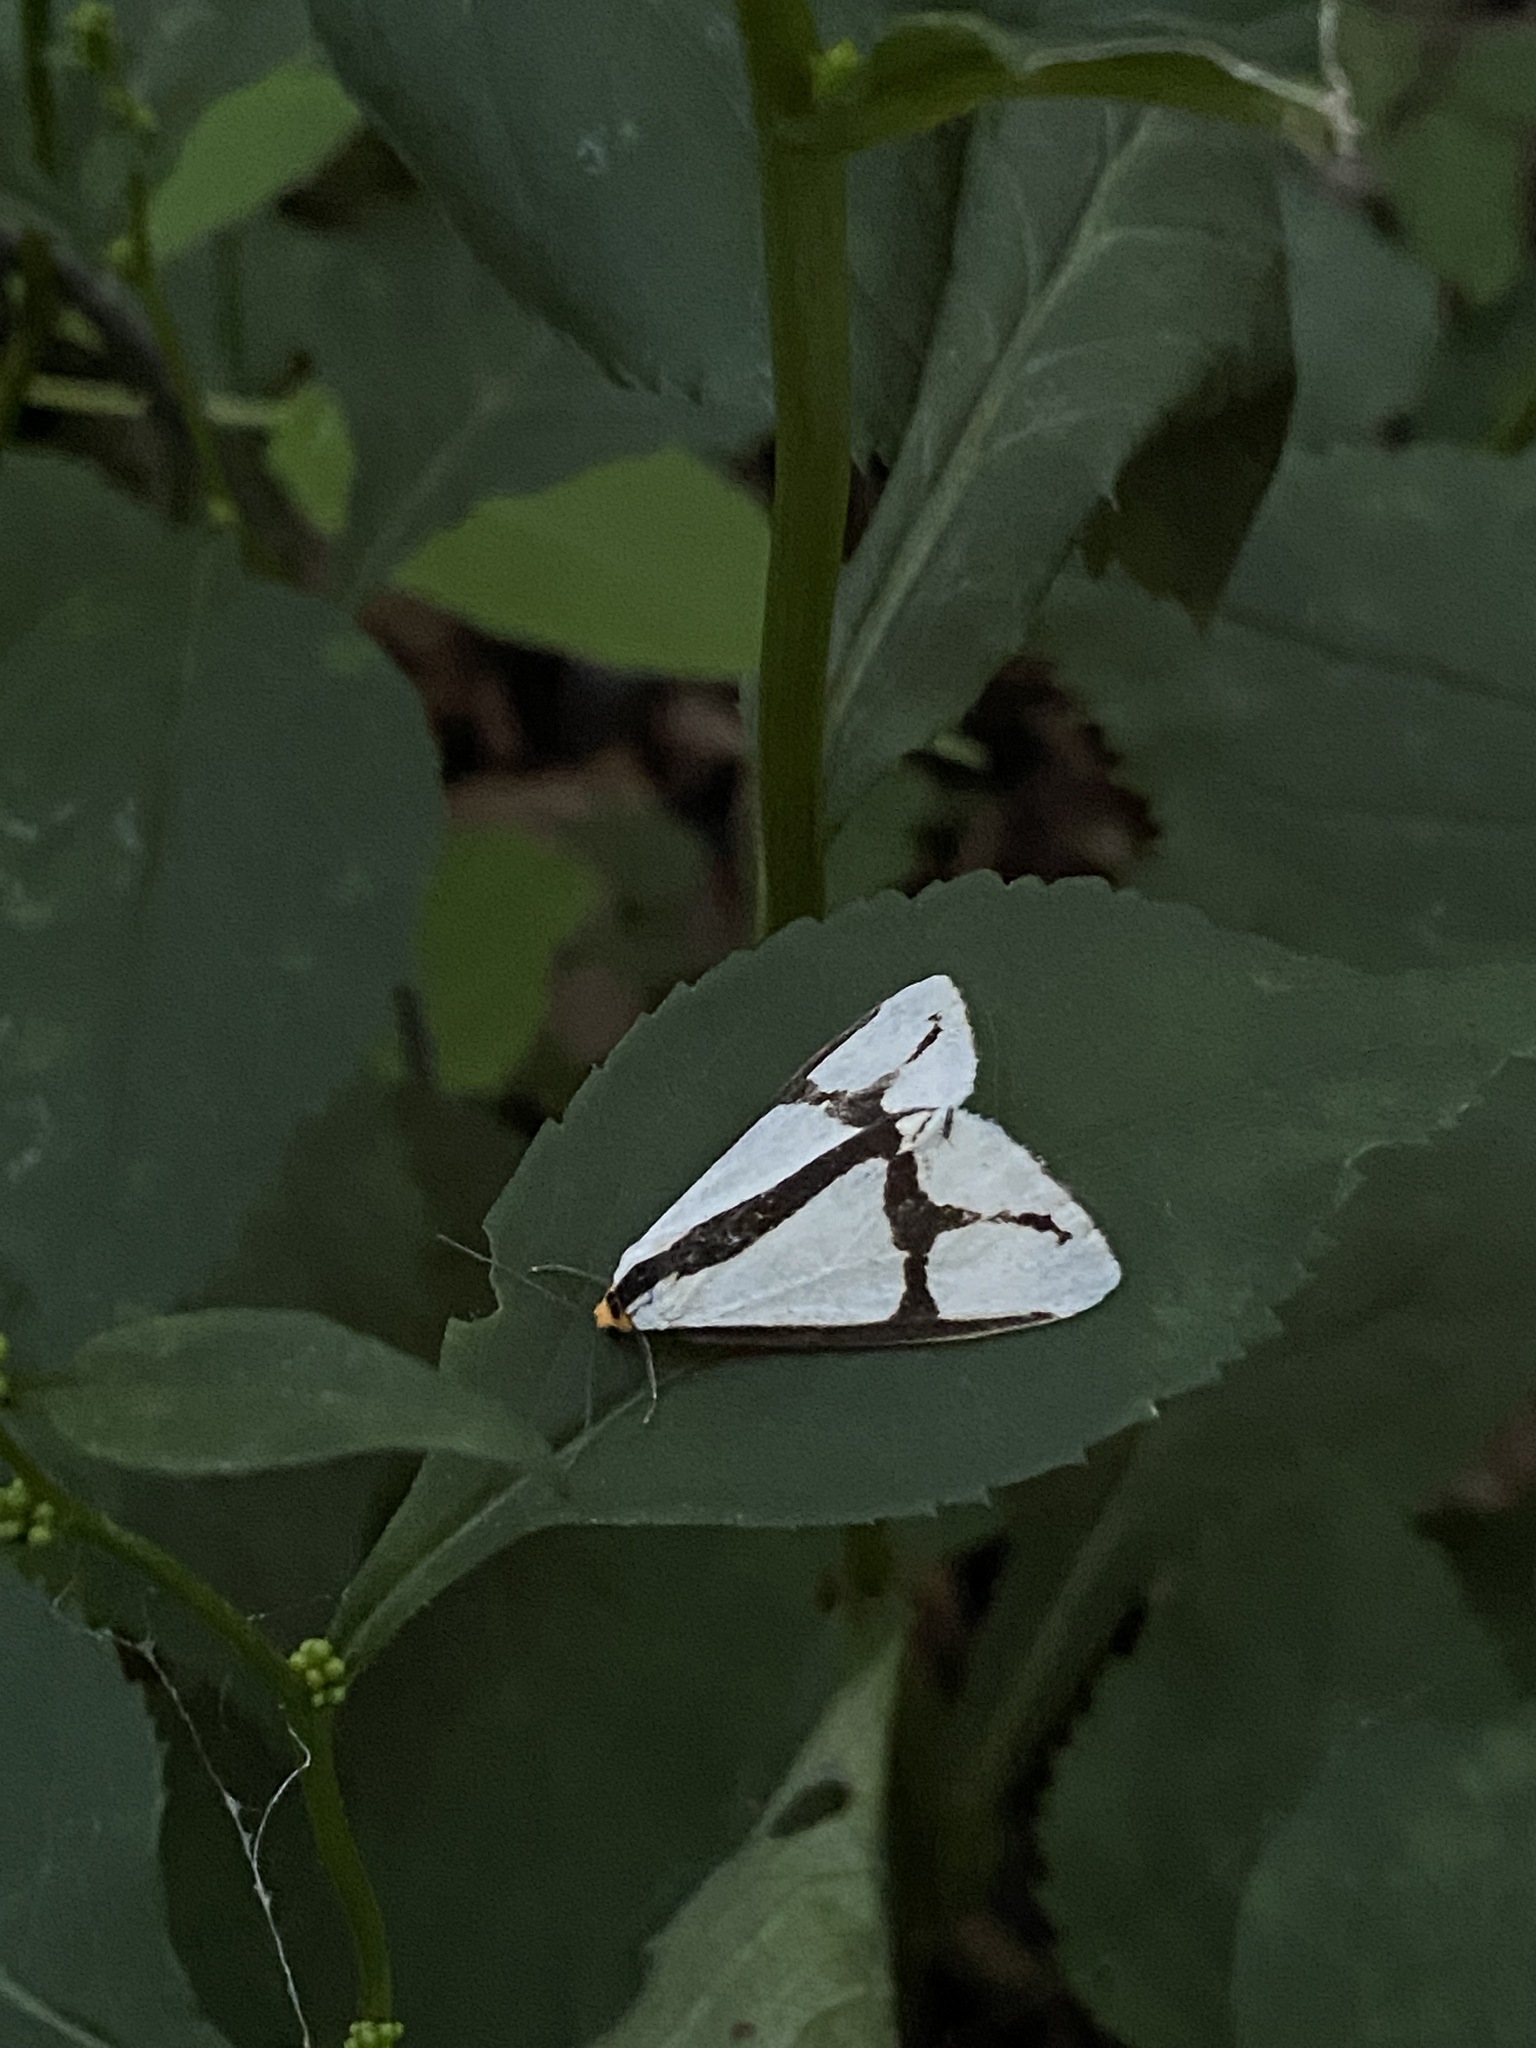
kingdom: Animalia
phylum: Arthropoda
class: Insecta
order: Lepidoptera
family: Erebidae
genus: Haploa
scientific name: Haploa contigua
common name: Neighbor moth
